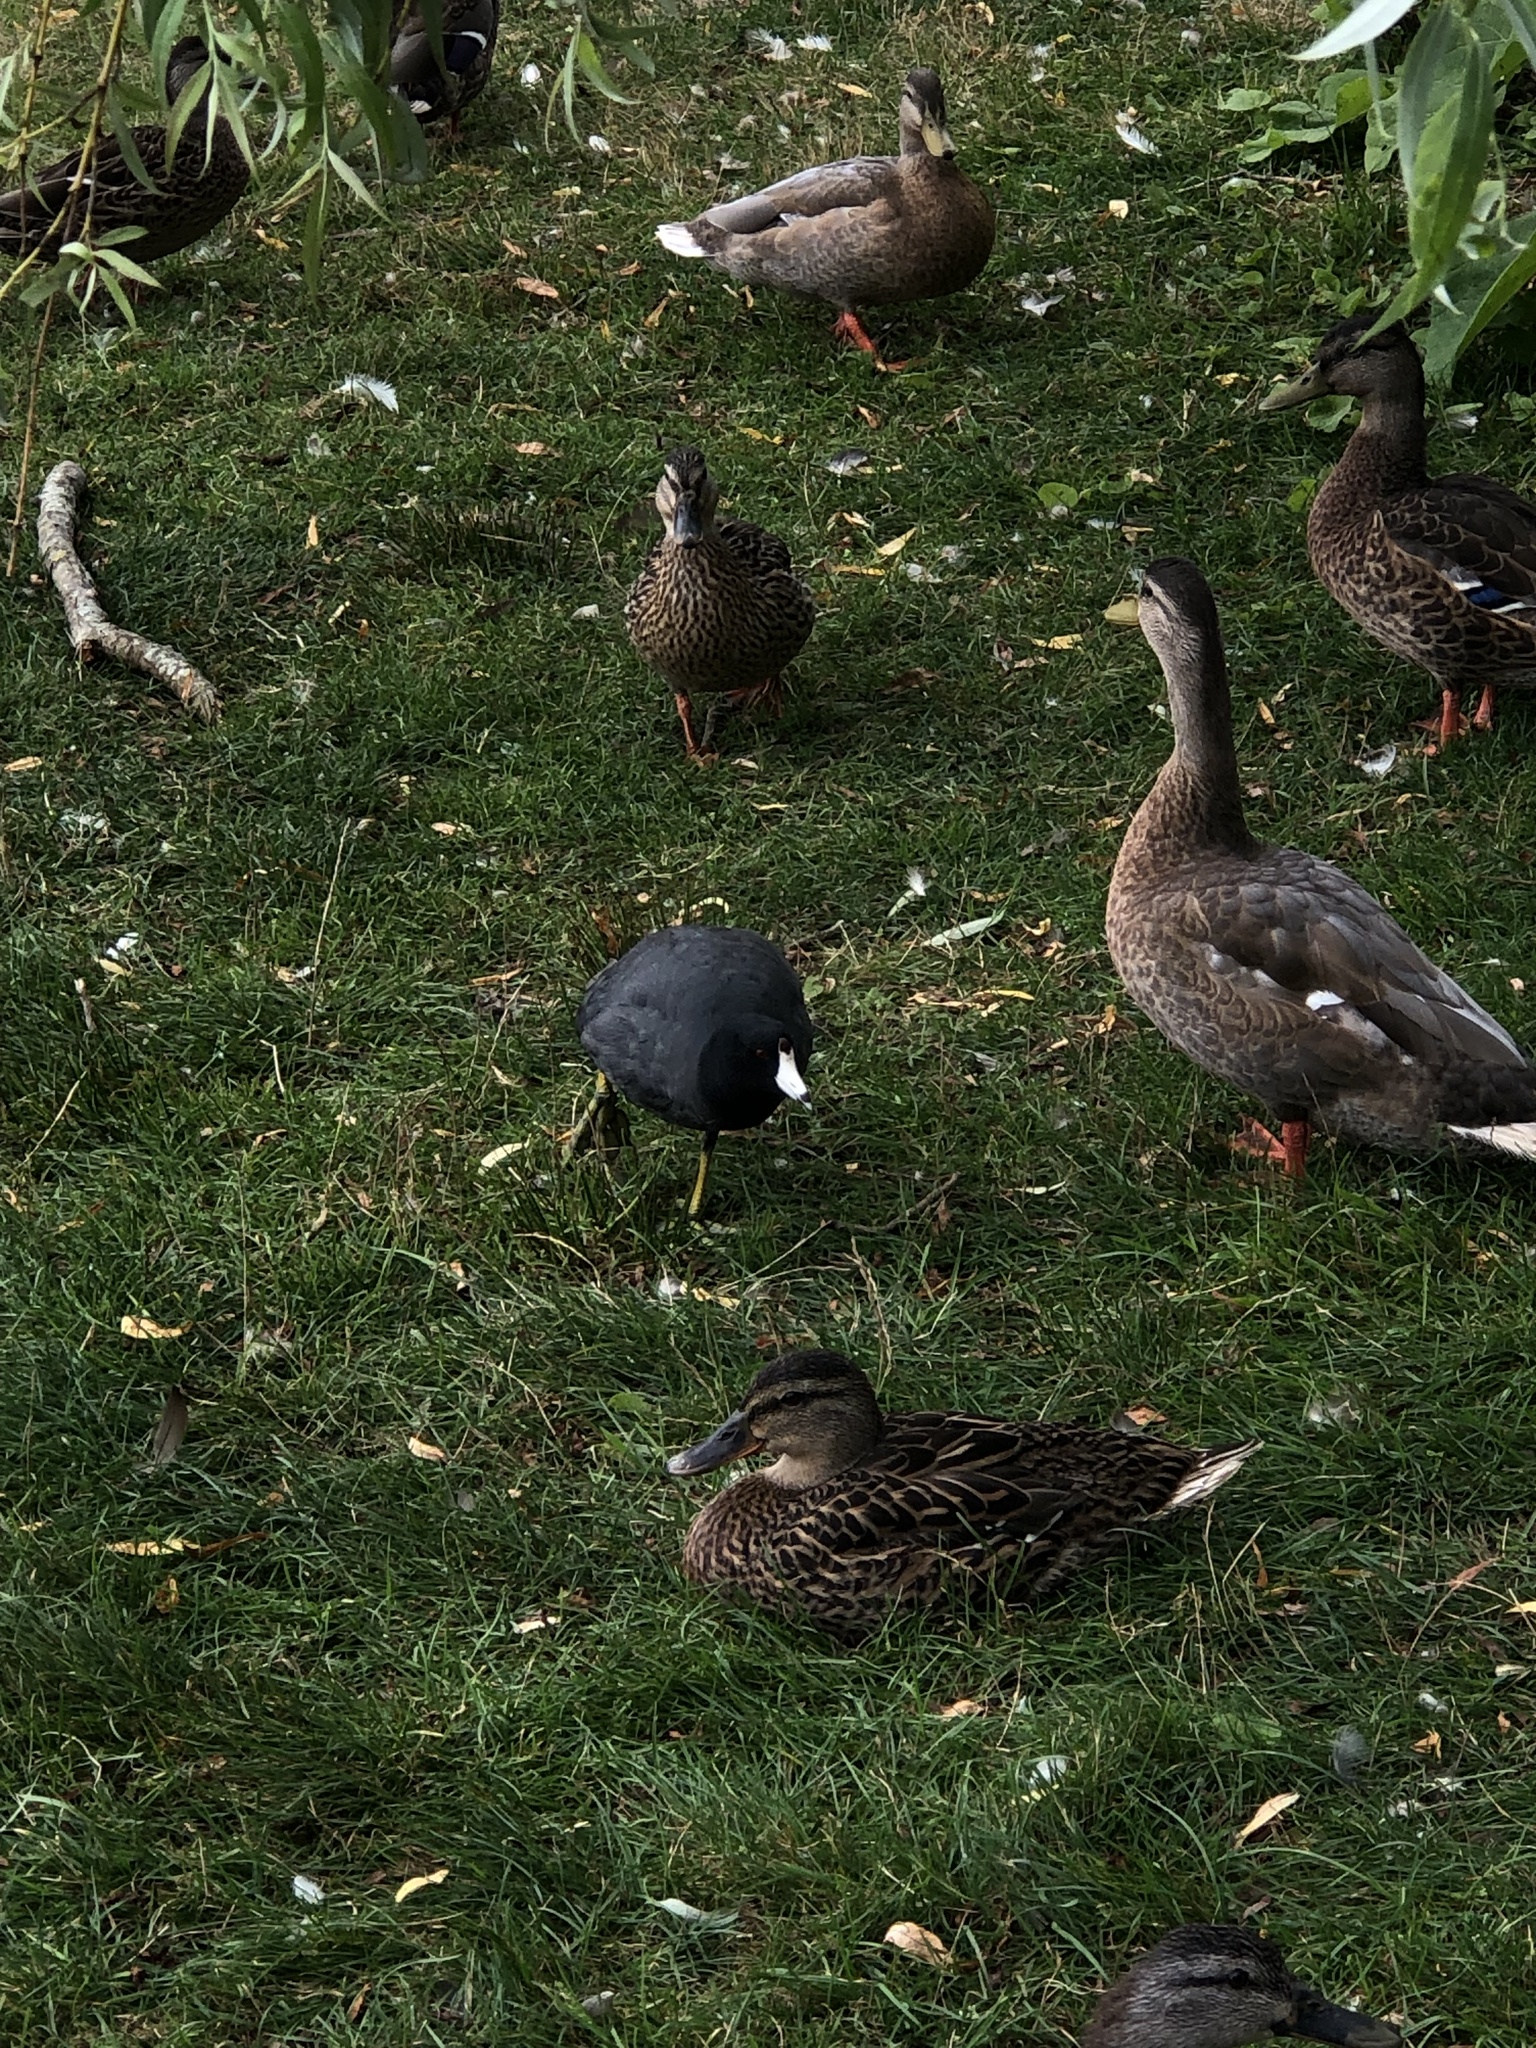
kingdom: Animalia
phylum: Chordata
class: Aves
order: Gruiformes
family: Rallidae
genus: Fulica
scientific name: Fulica americana
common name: American coot
